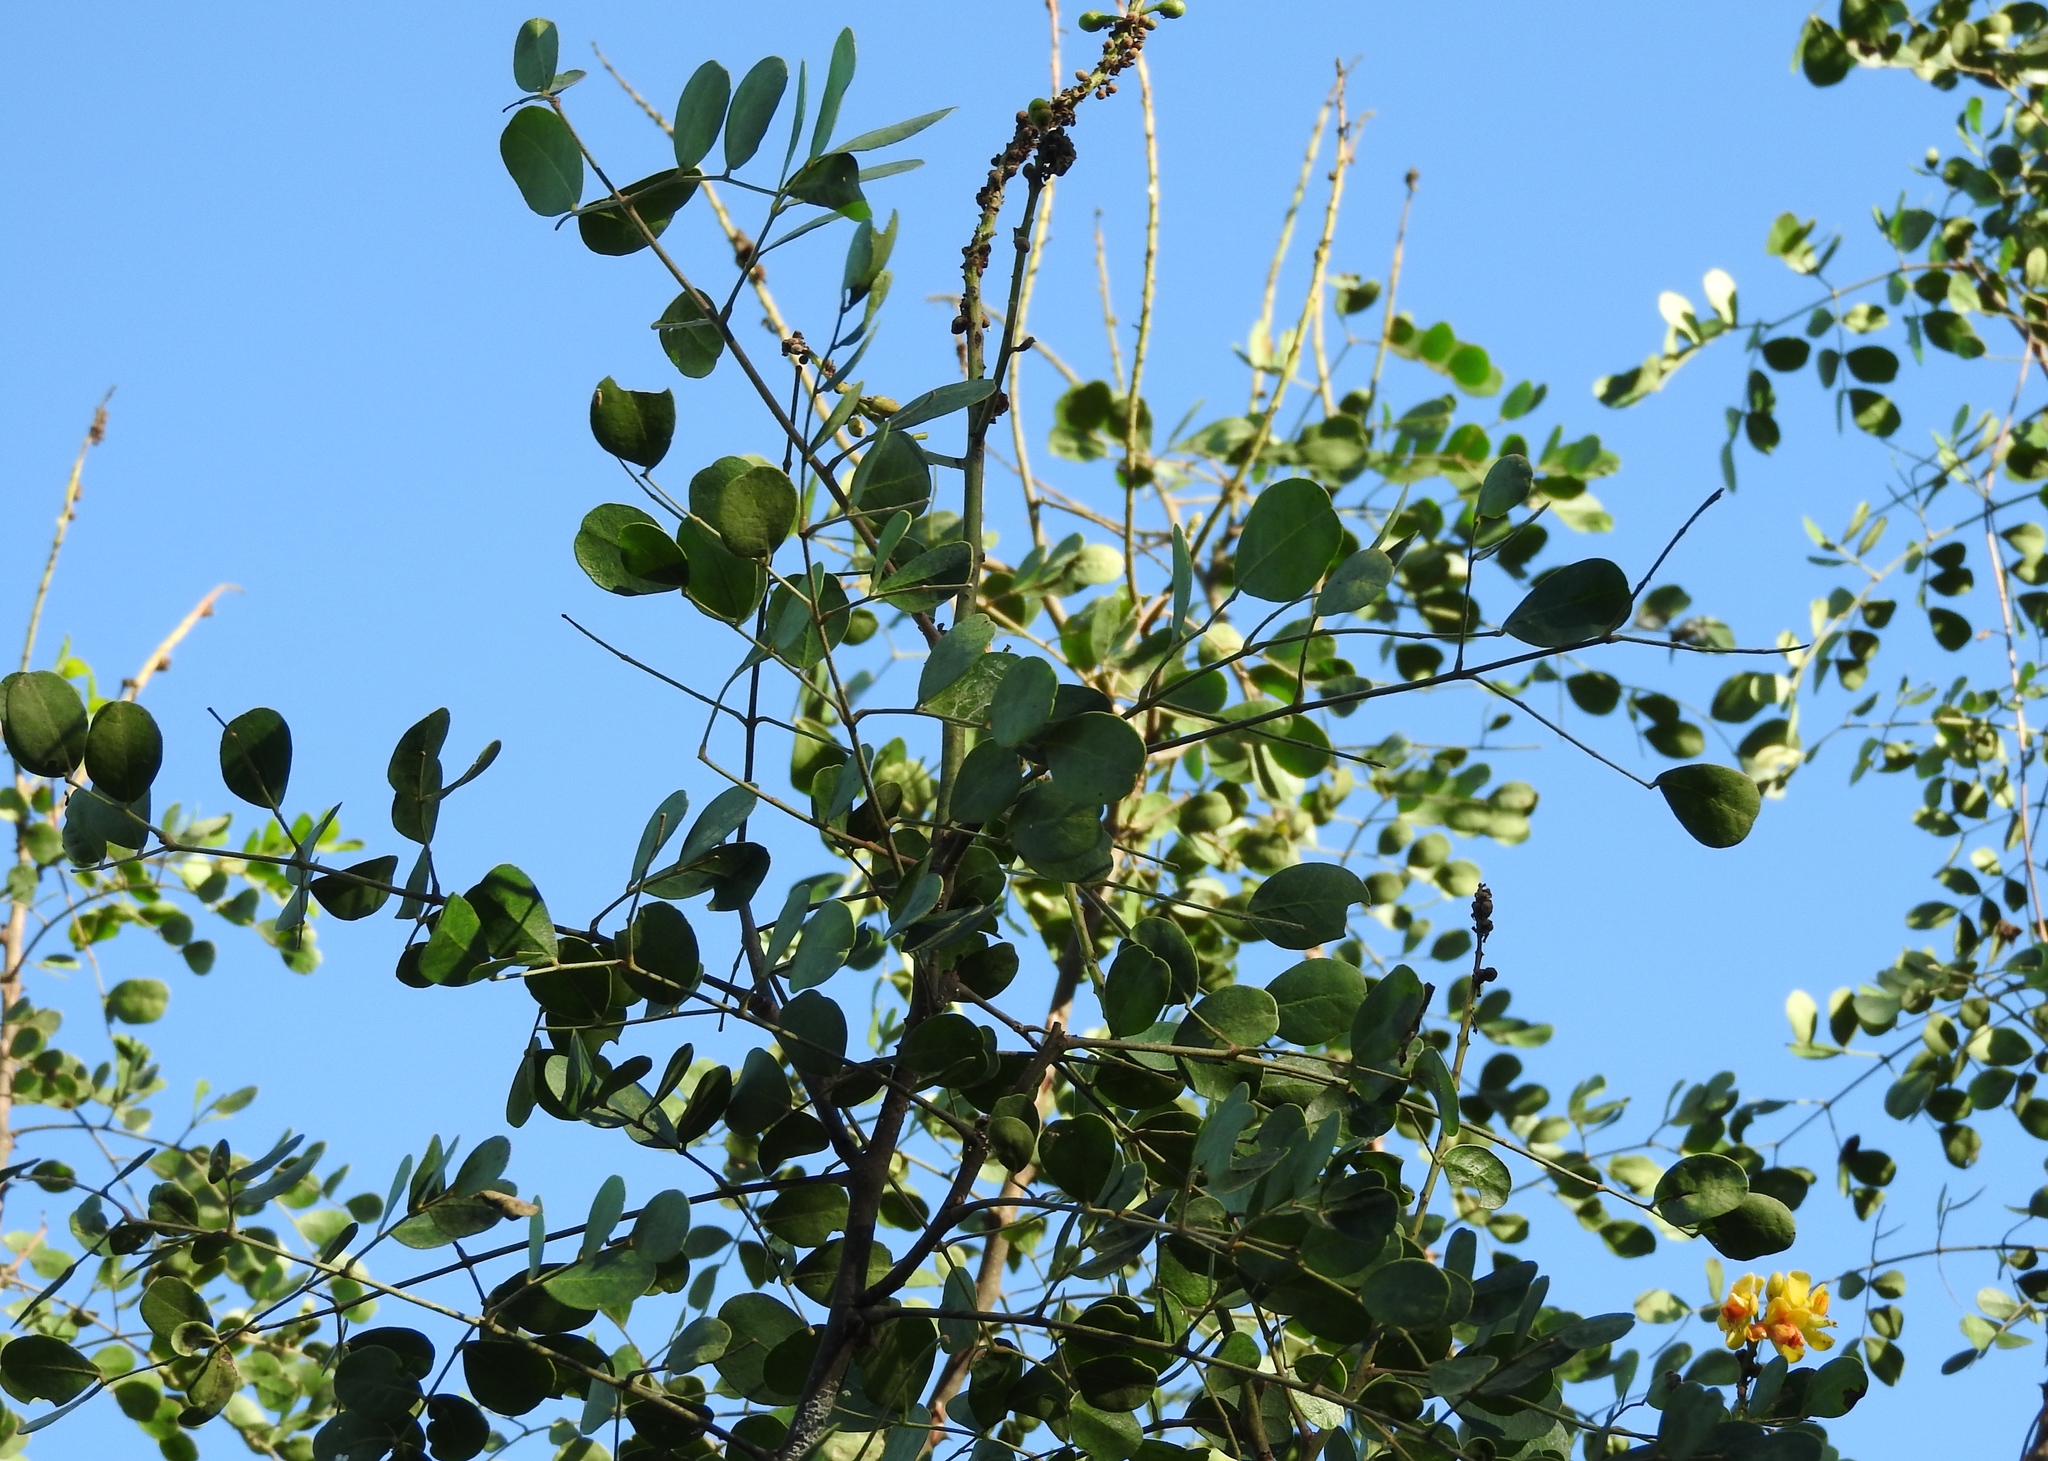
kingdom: Plantae
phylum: Tracheophyta
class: Magnoliopsida
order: Fabales
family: Fabaceae
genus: Tara
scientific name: Tara cacalaco
